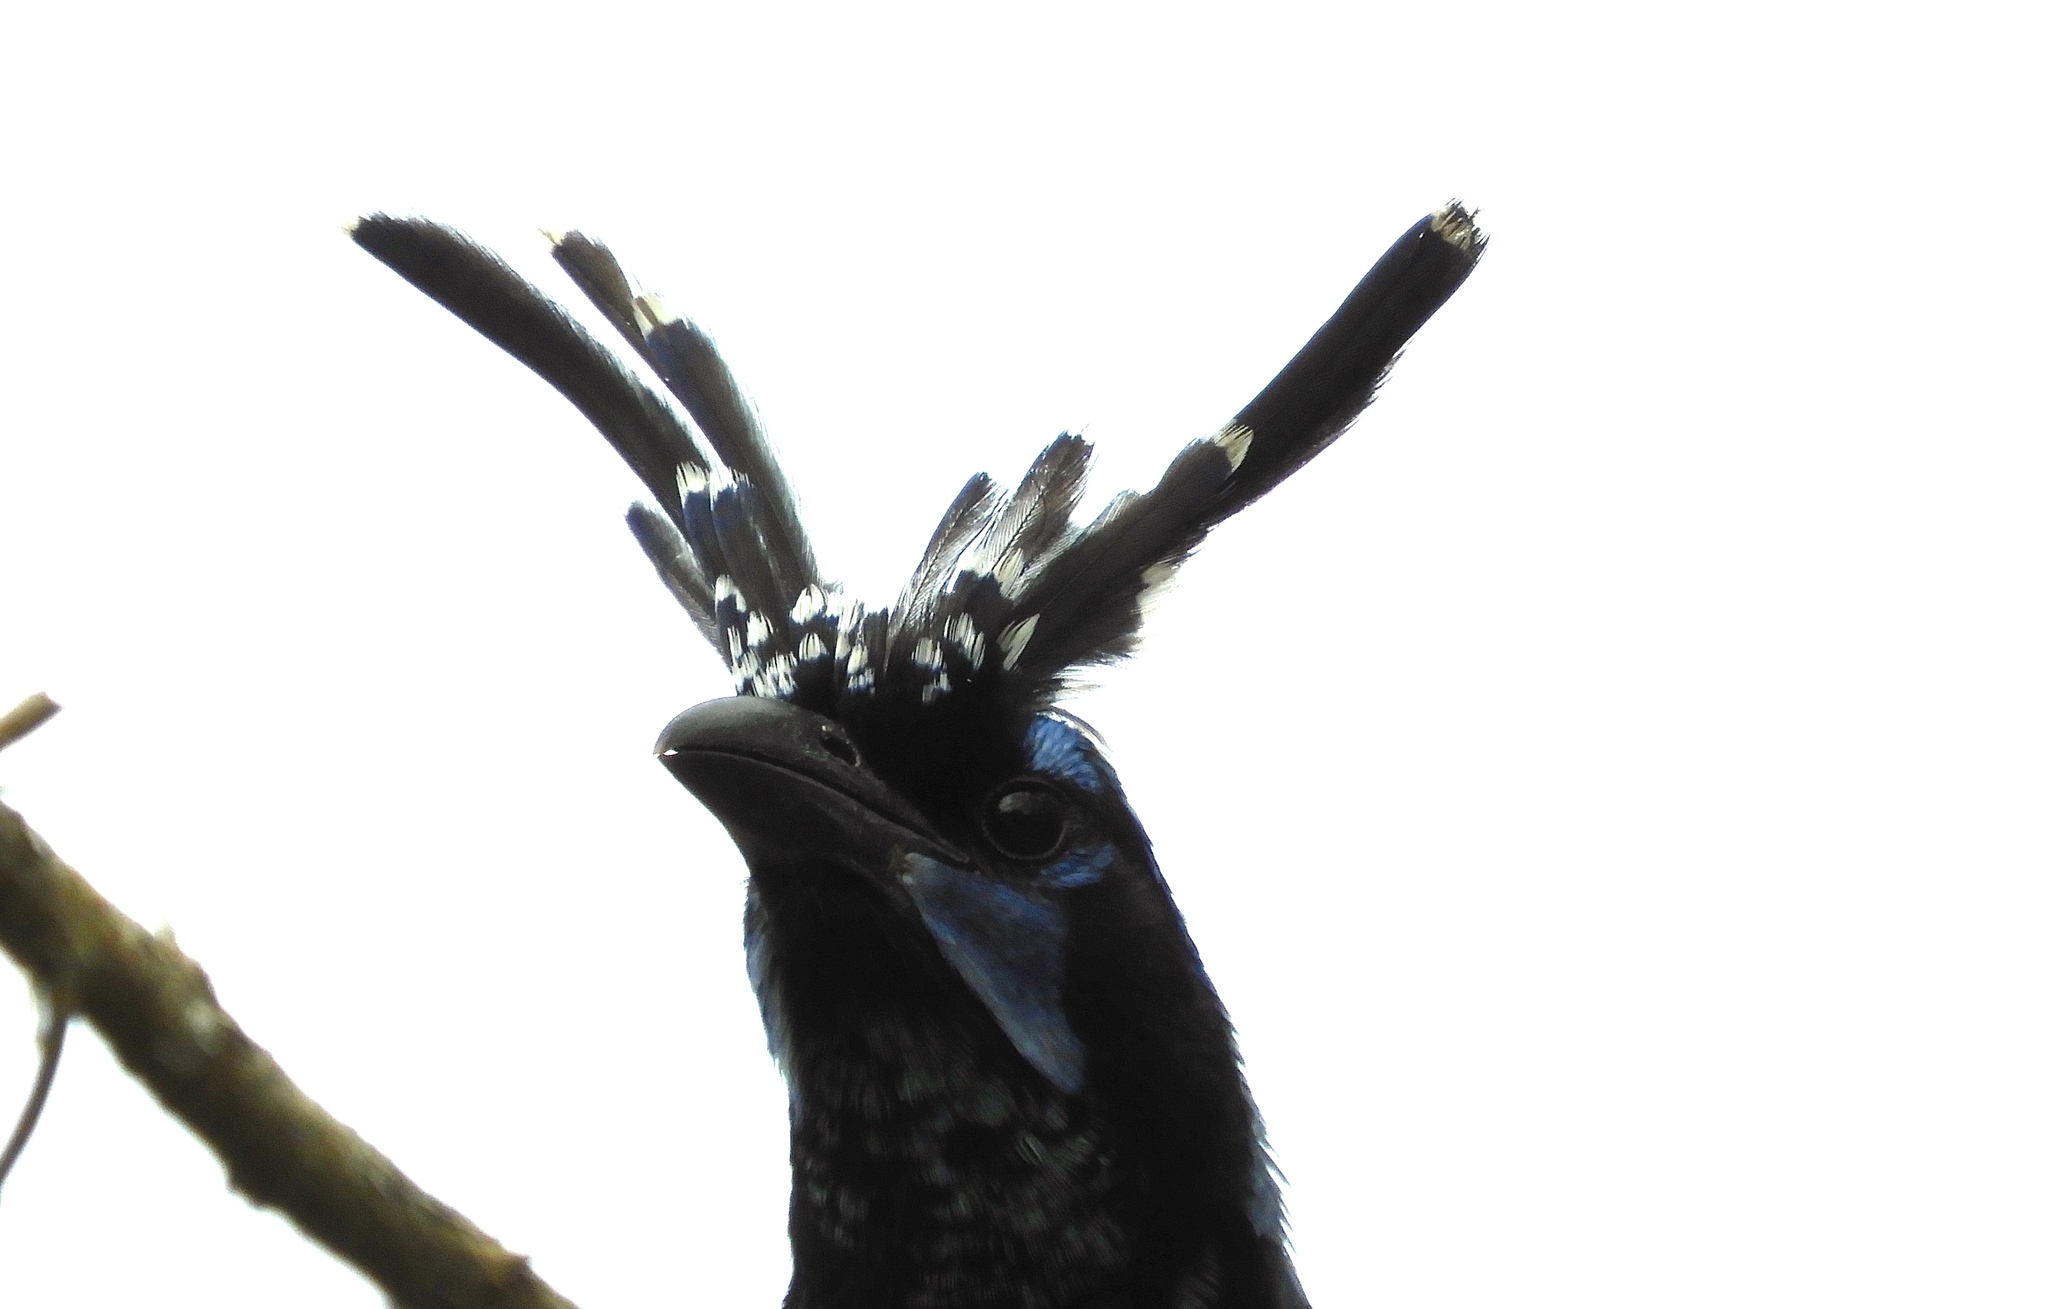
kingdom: Animalia
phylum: Chordata
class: Aves
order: Passeriformes
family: Corvidae
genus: Calocitta
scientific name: Calocitta colliei
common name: Black-throated magpie-jay
